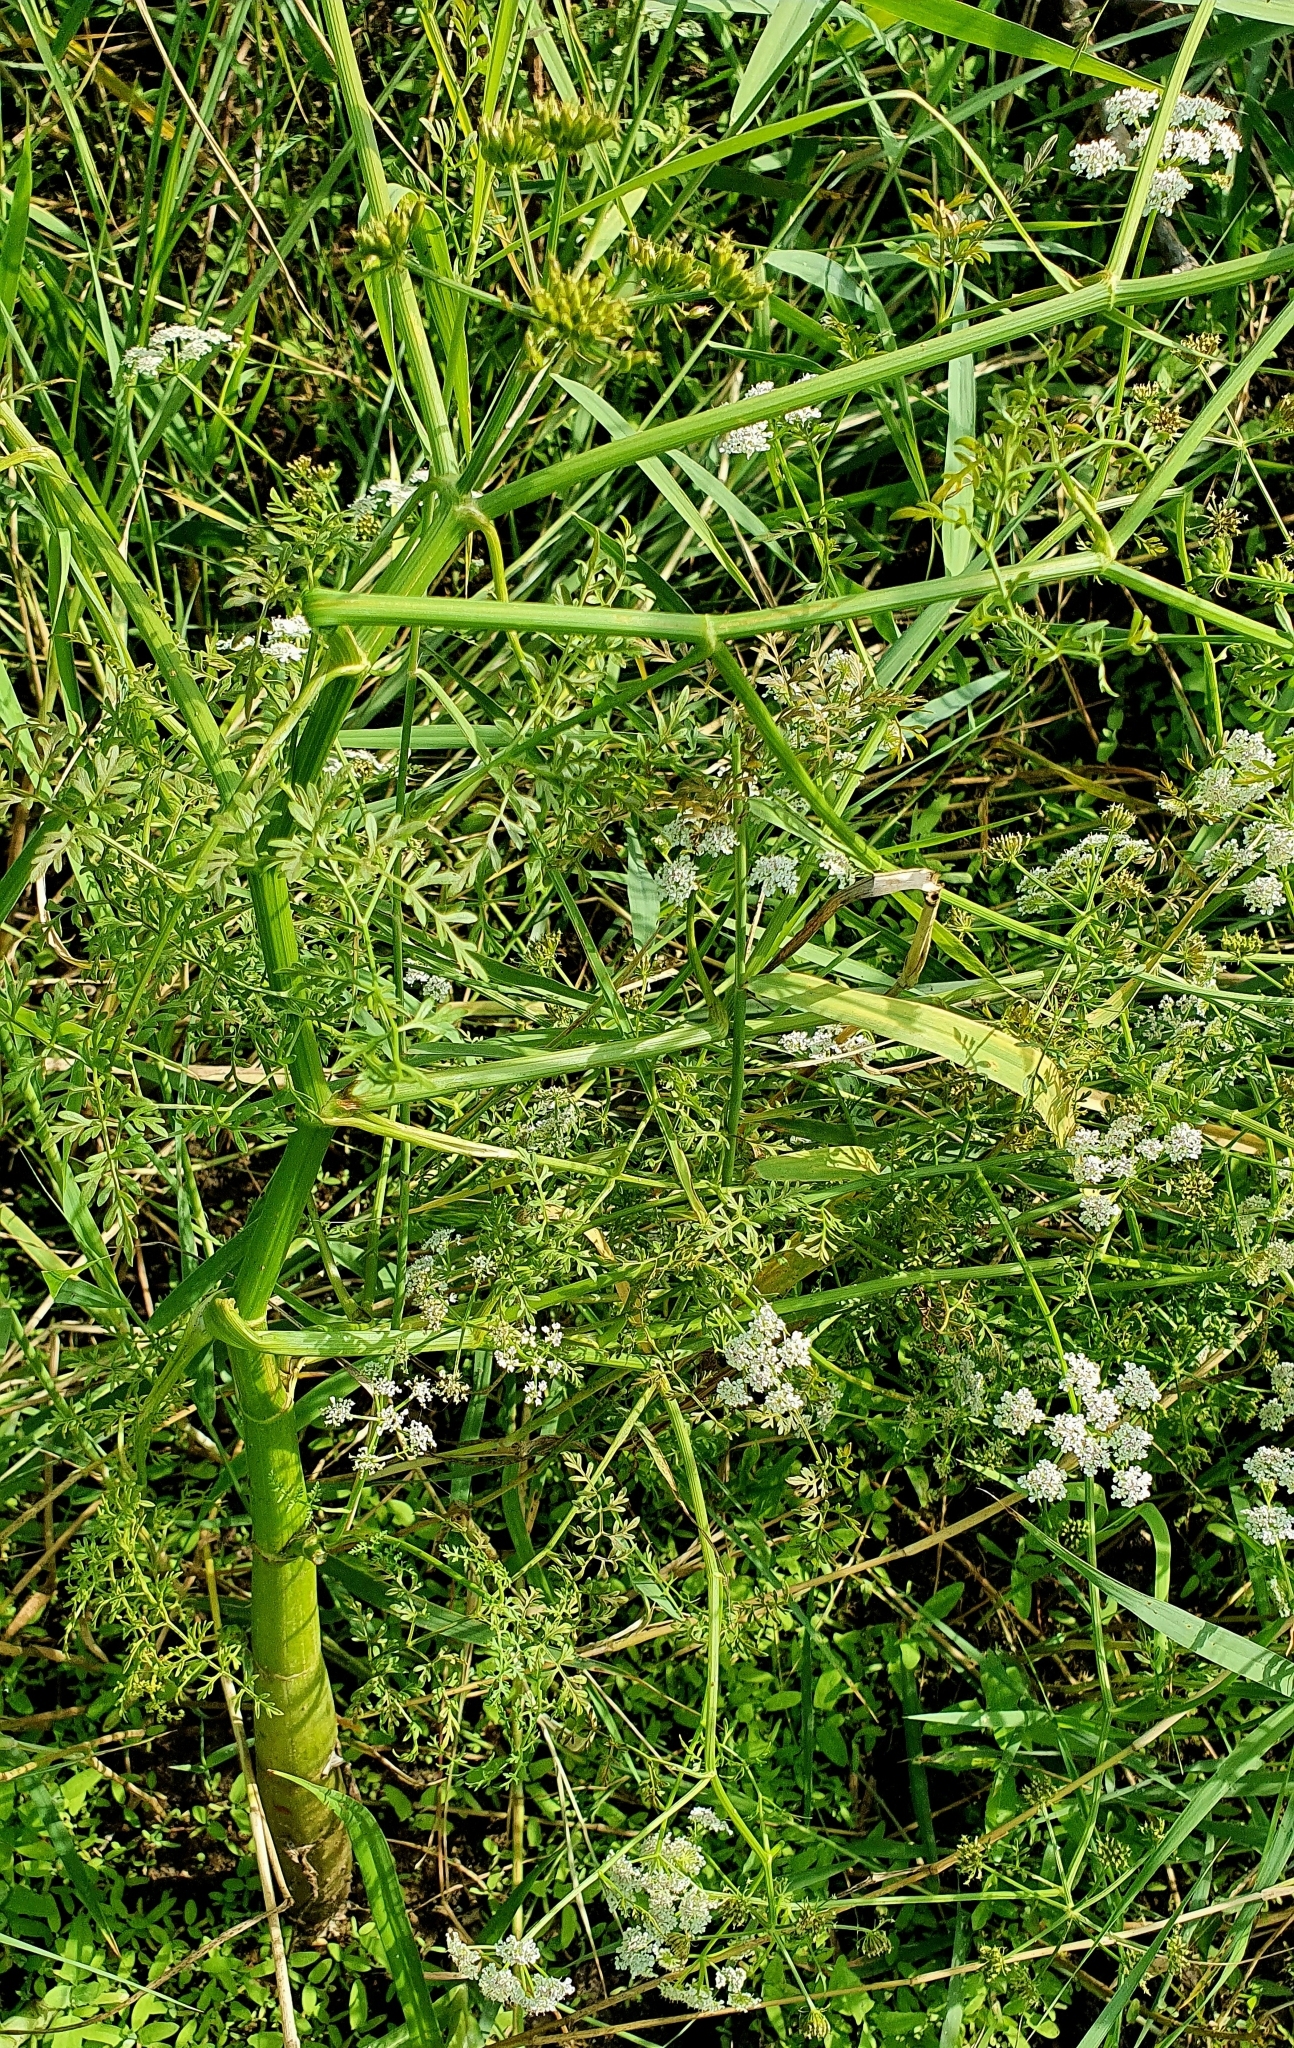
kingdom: Plantae
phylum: Tracheophyta
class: Magnoliopsida
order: Apiales
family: Apiaceae
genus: Oenanthe
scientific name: Oenanthe aquatica
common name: Fine-leaved water-dropwort
